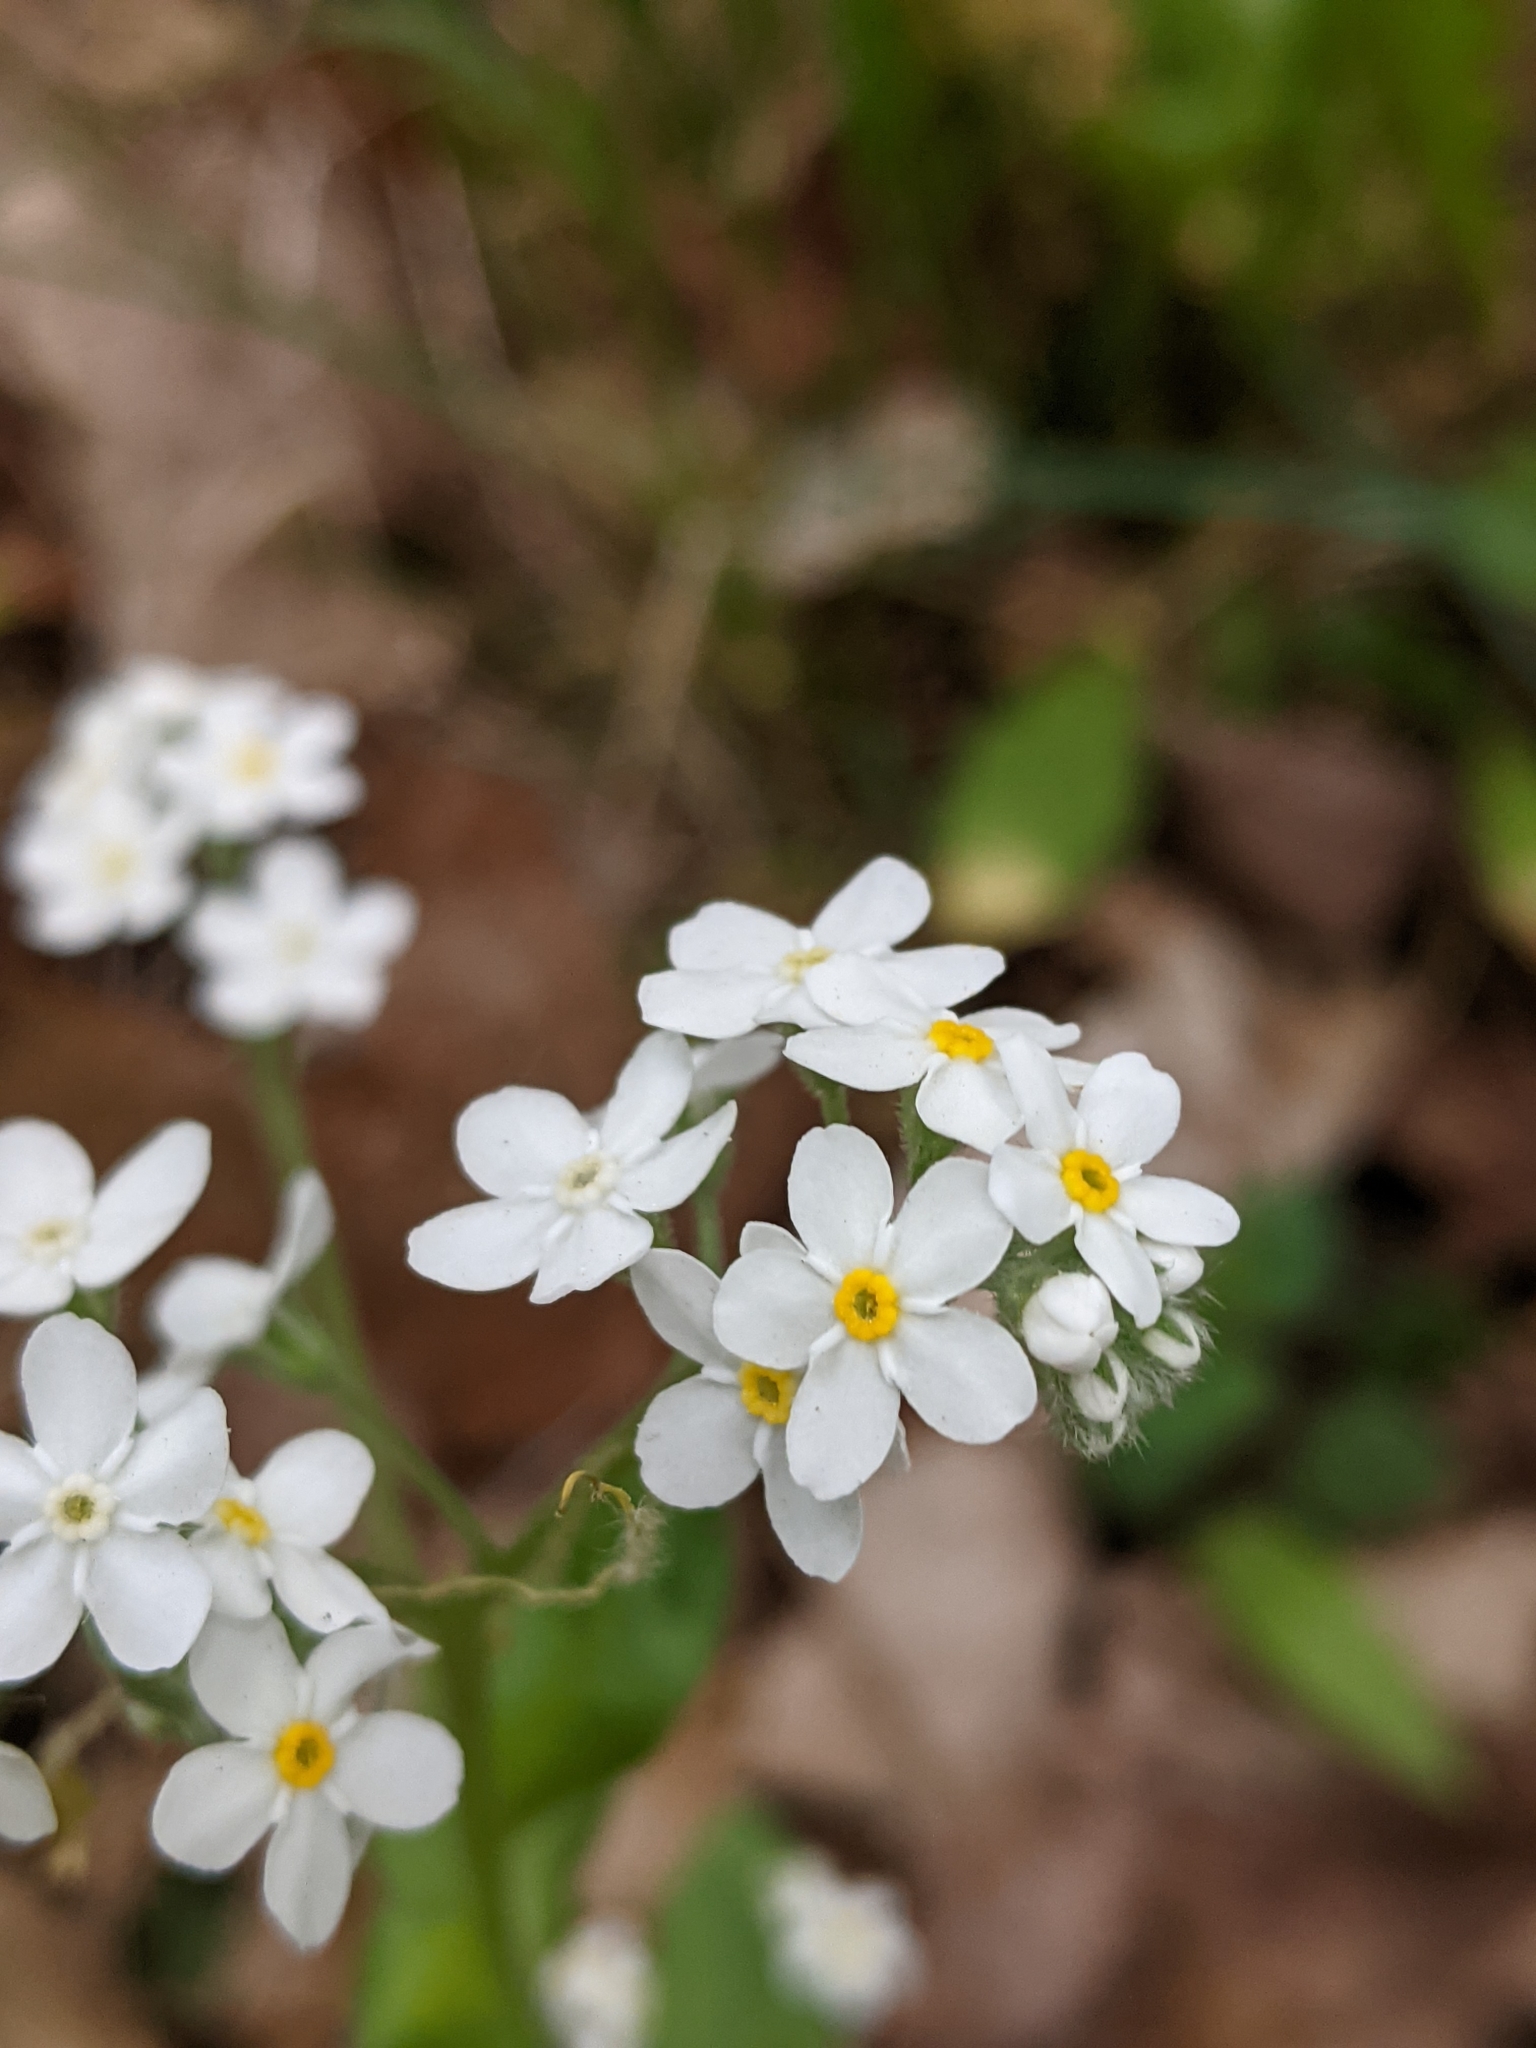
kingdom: Plantae
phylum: Tracheophyta
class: Magnoliopsida
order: Boraginales
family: Boraginaceae
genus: Myosotis
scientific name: Myosotis sylvatica
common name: Wood forget-me-not
